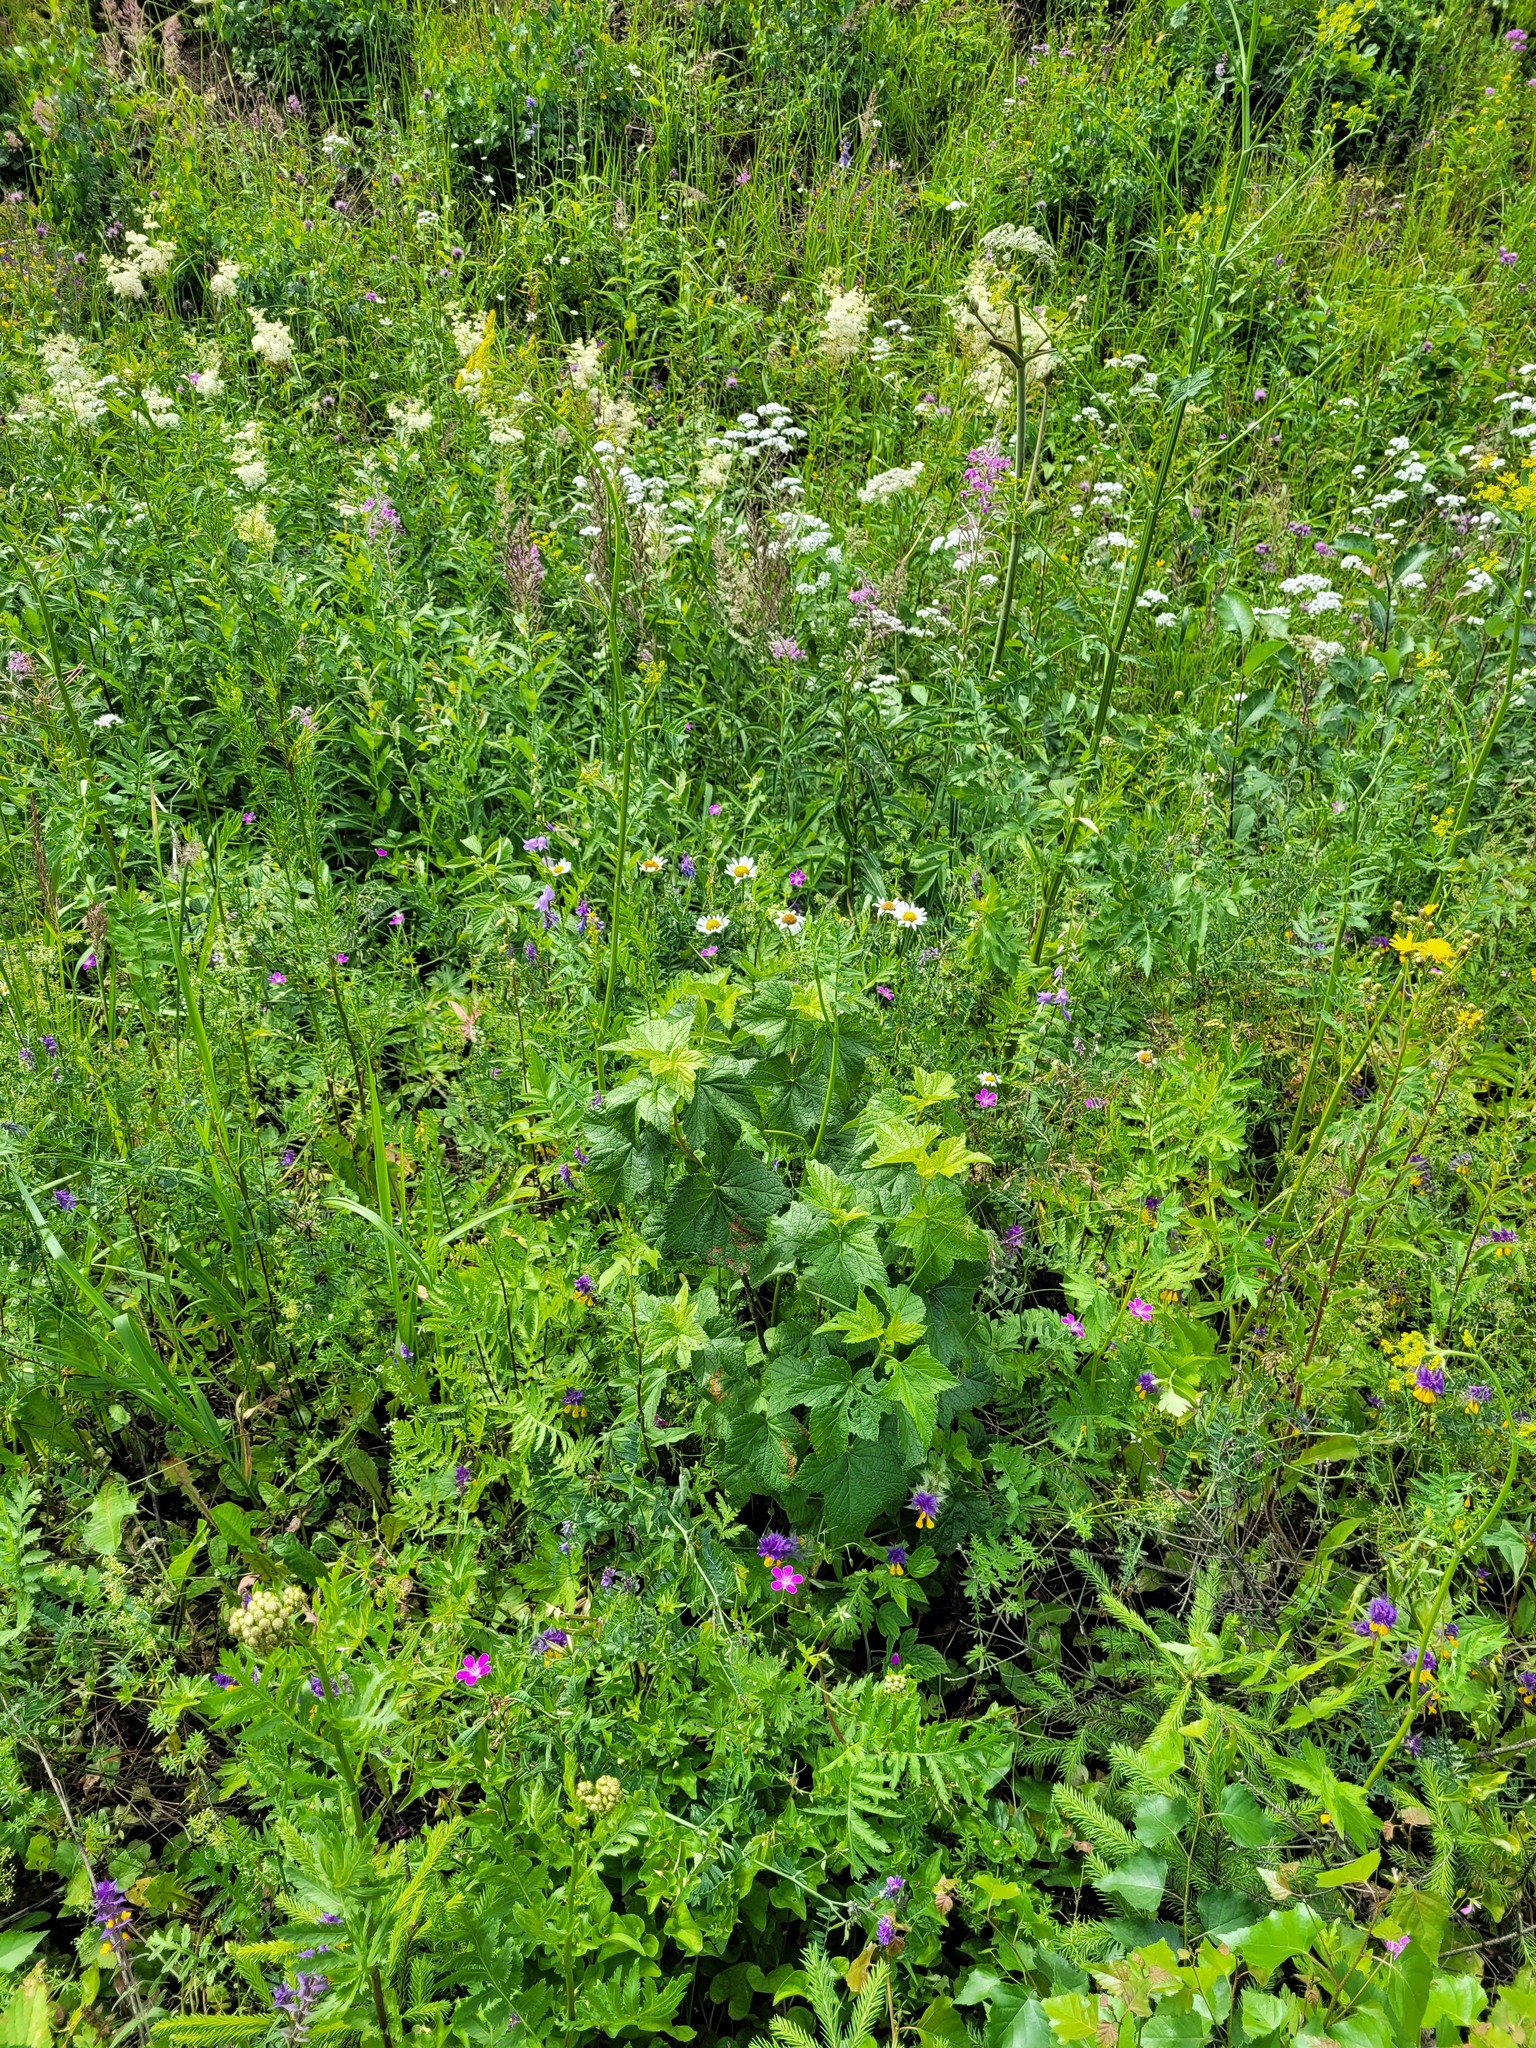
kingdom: Plantae
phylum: Tracheophyta
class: Magnoliopsida
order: Saxifragales
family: Grossulariaceae
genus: Ribes
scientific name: Ribes nigrum
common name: Black currant
